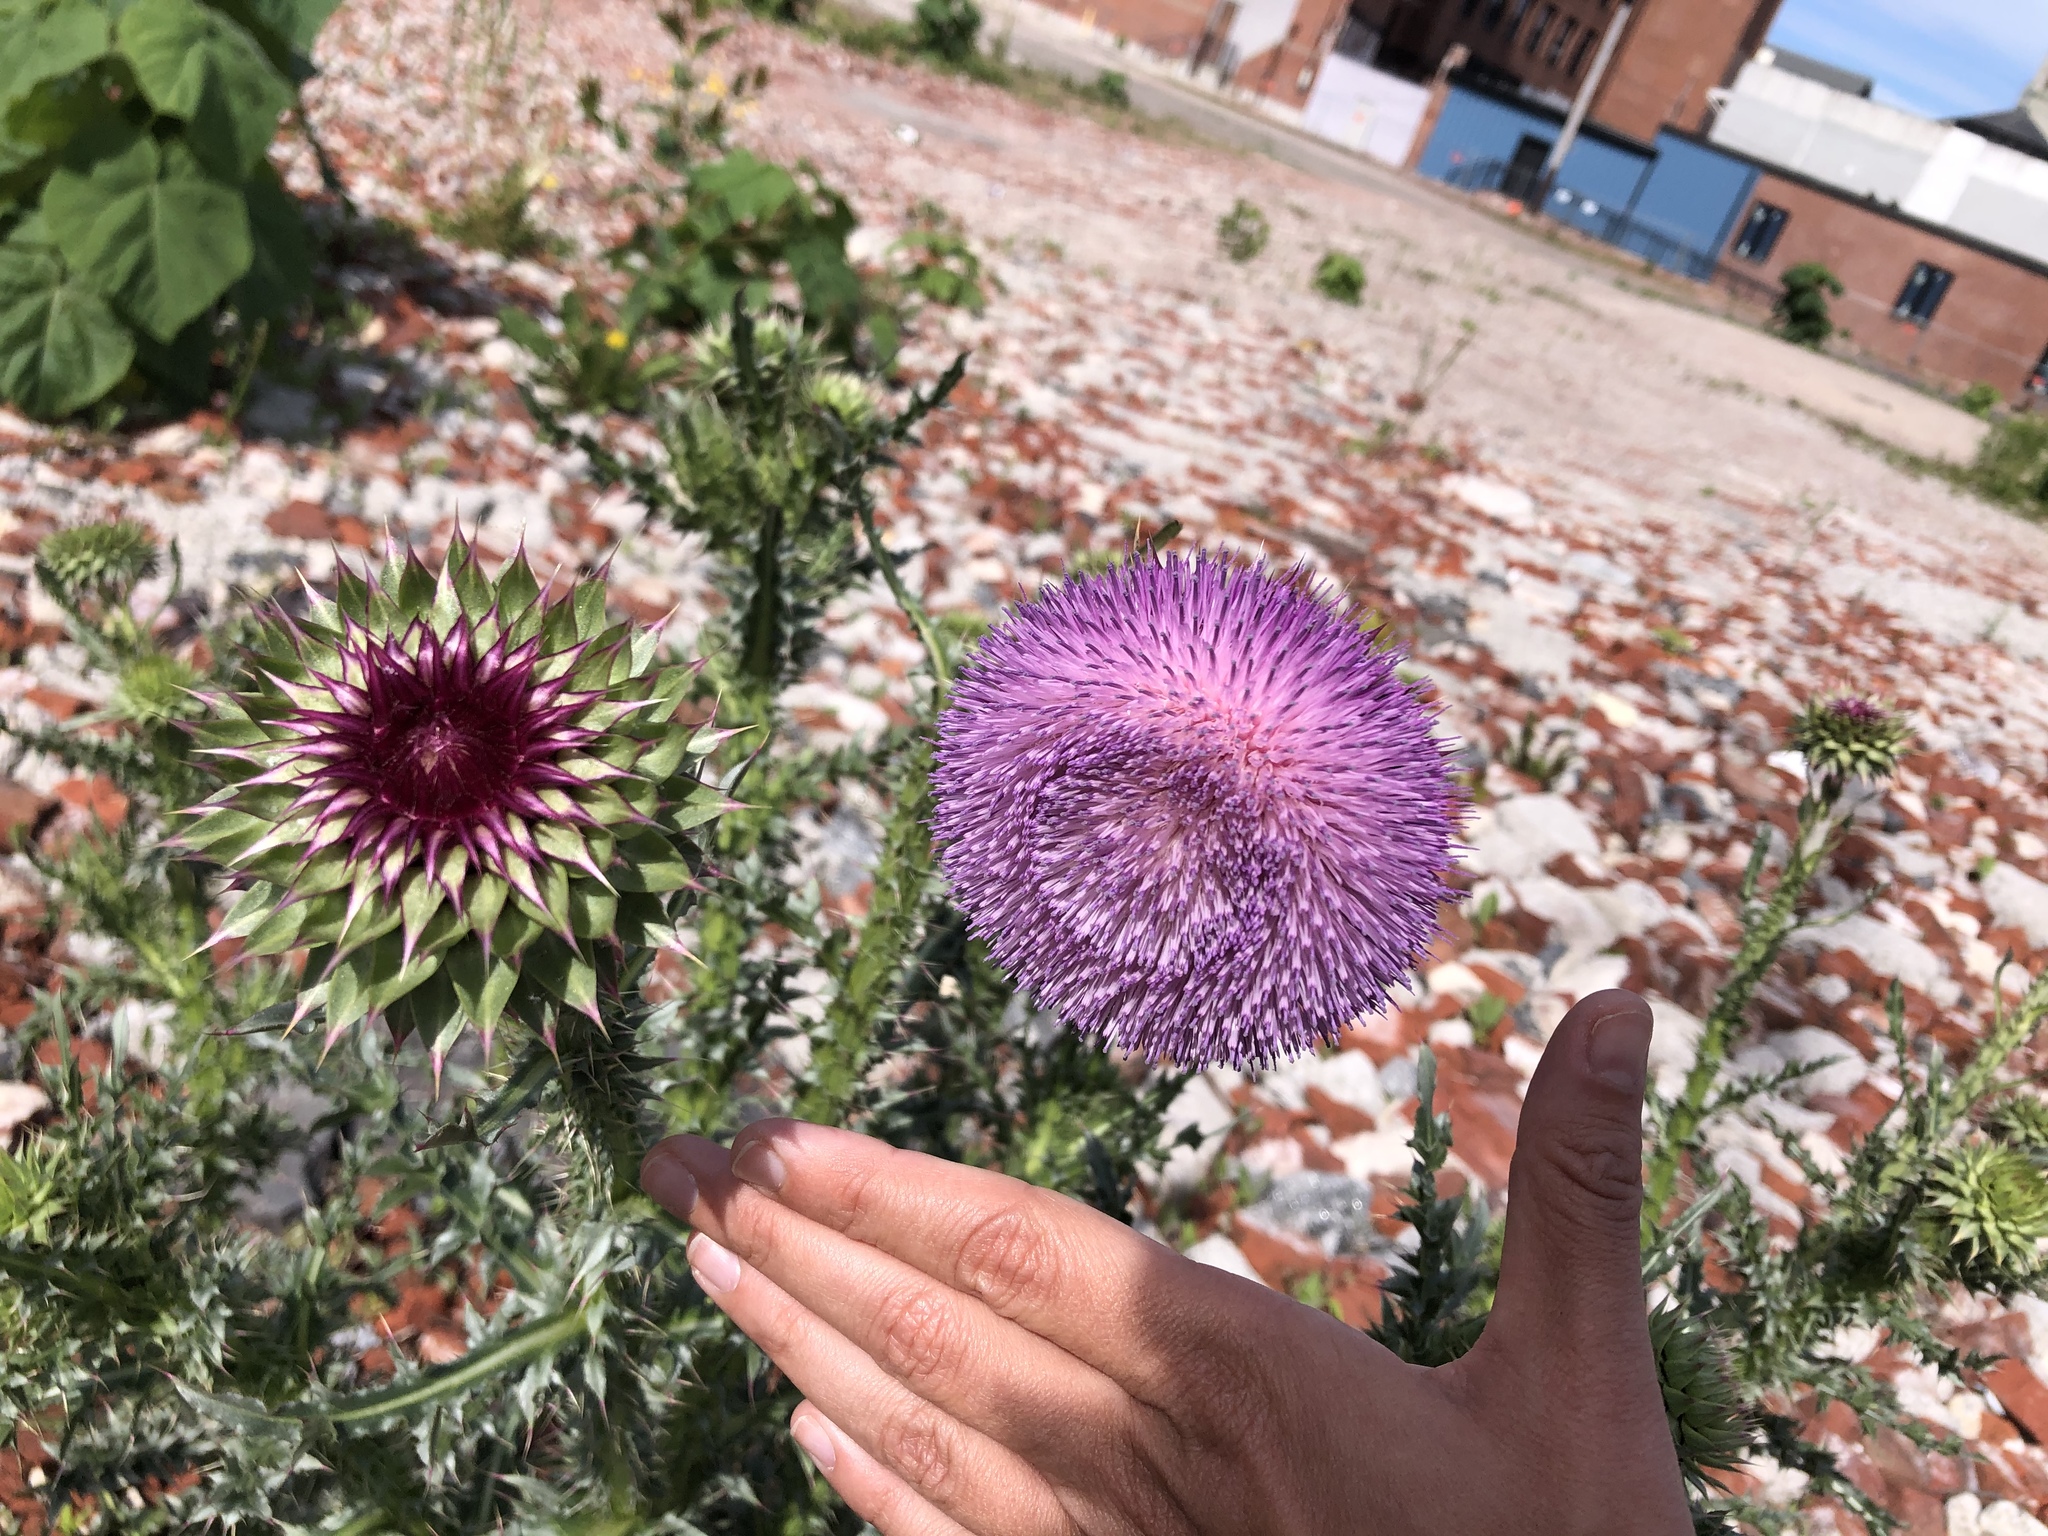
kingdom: Plantae
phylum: Tracheophyta
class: Magnoliopsida
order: Asterales
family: Asteraceae
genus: Carduus
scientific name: Carduus nutans
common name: Musk thistle
